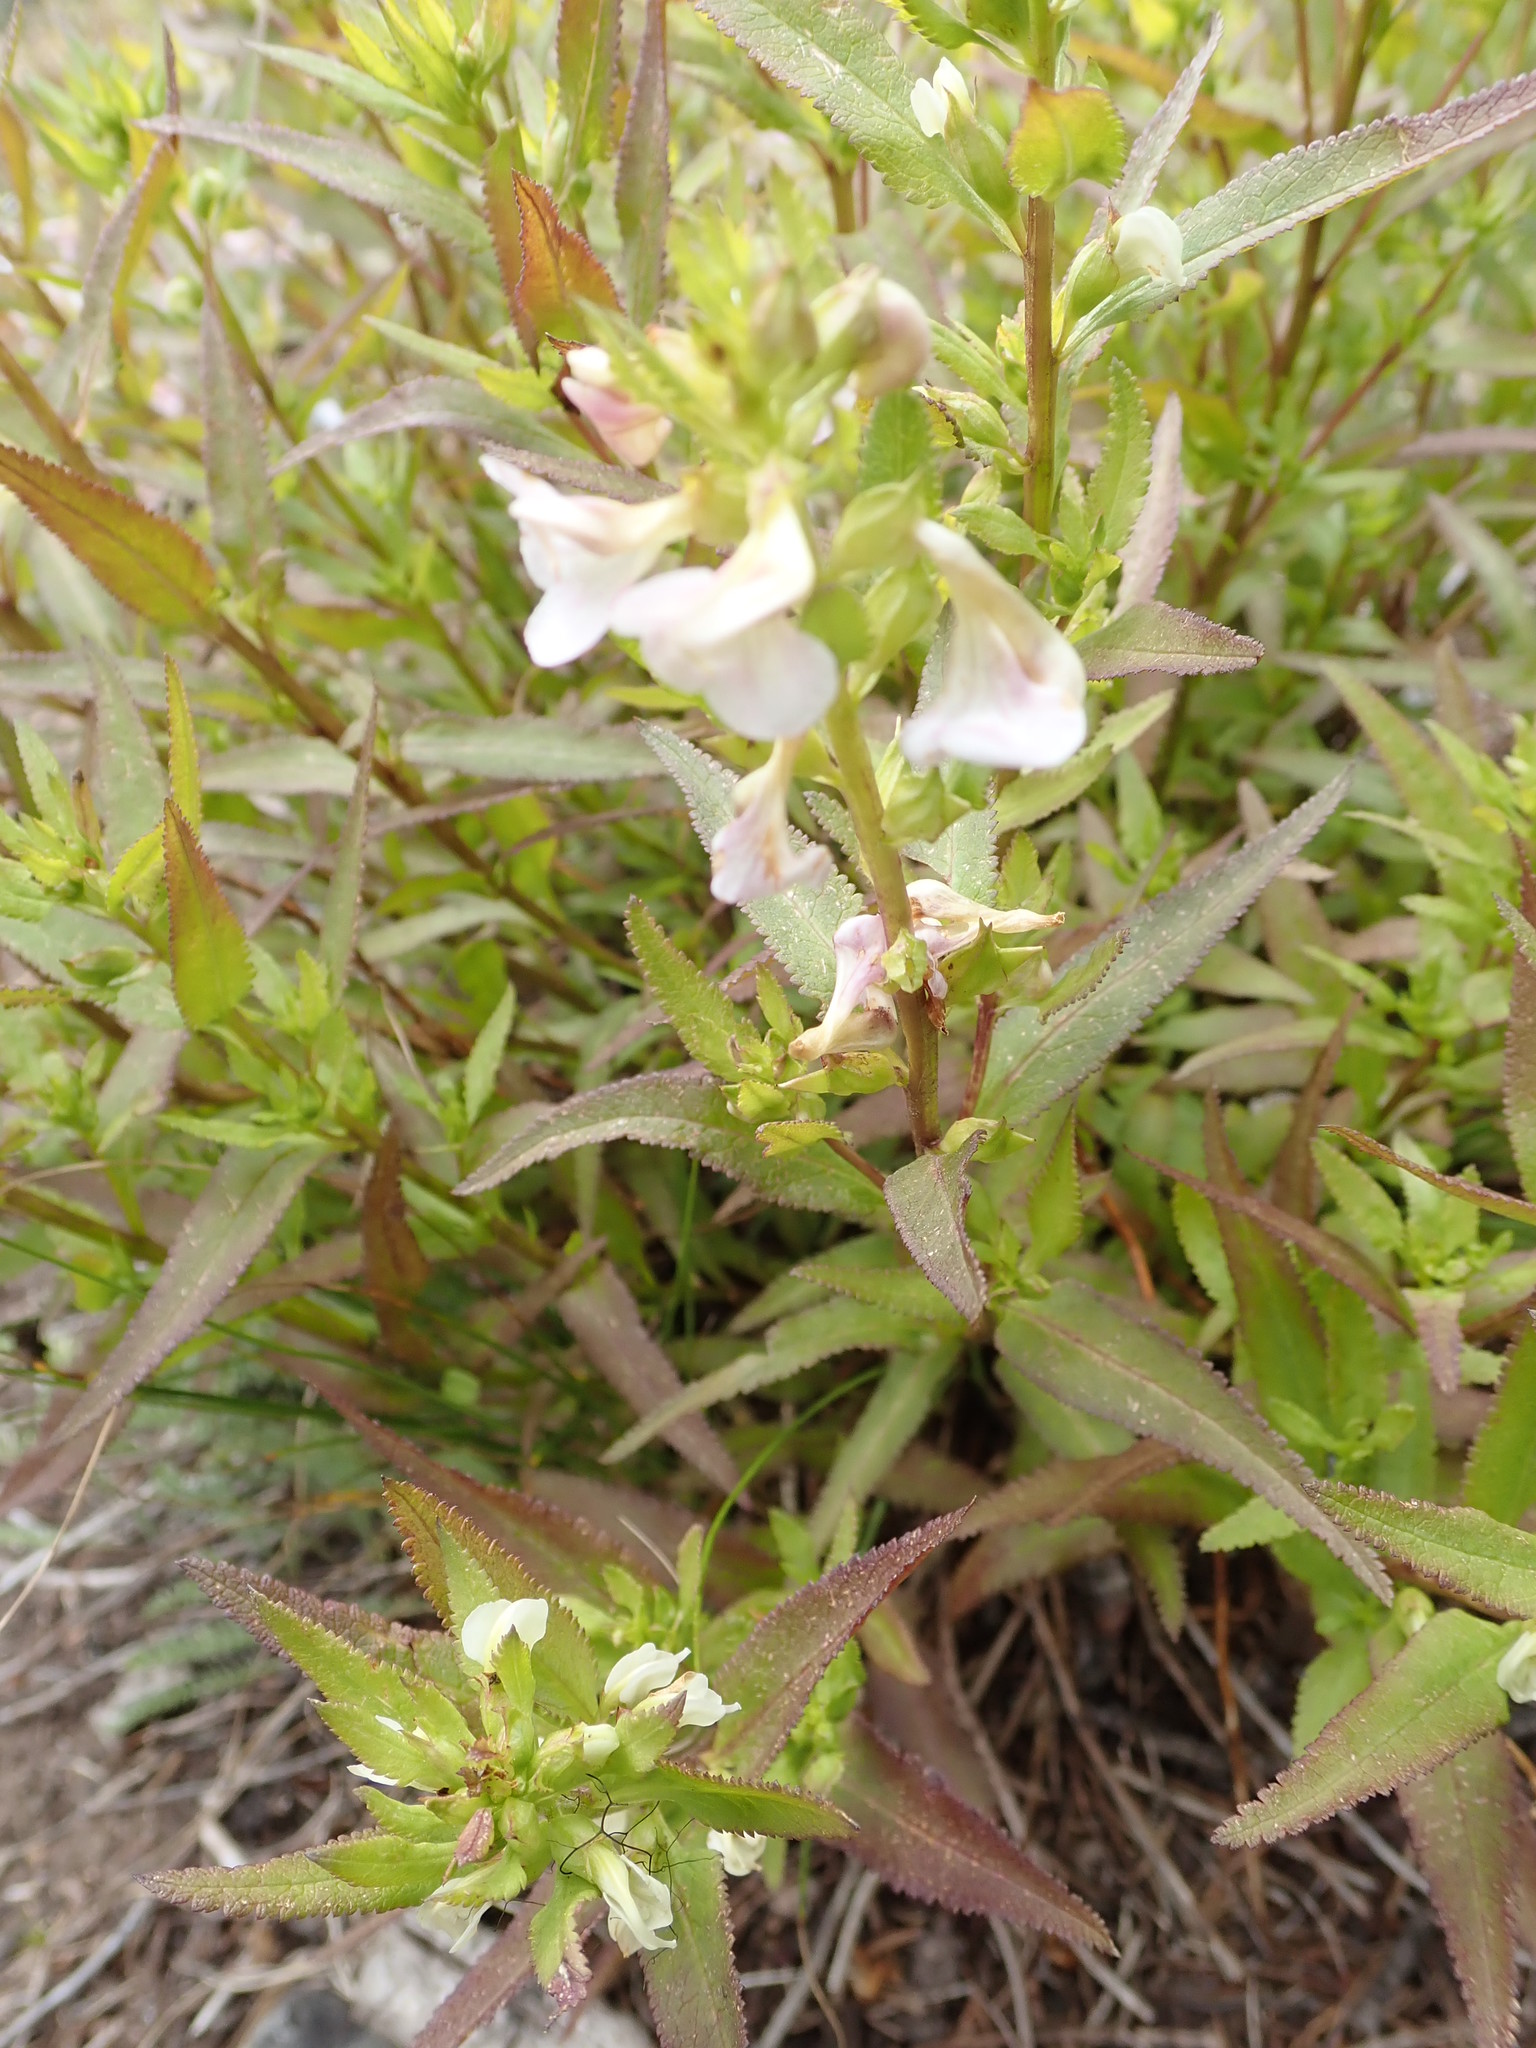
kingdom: Plantae
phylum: Tracheophyta
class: Magnoliopsida
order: Lamiales
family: Orobanchaceae
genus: Pedicularis
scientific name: Pedicularis racemosa
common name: Leafy lousewort
